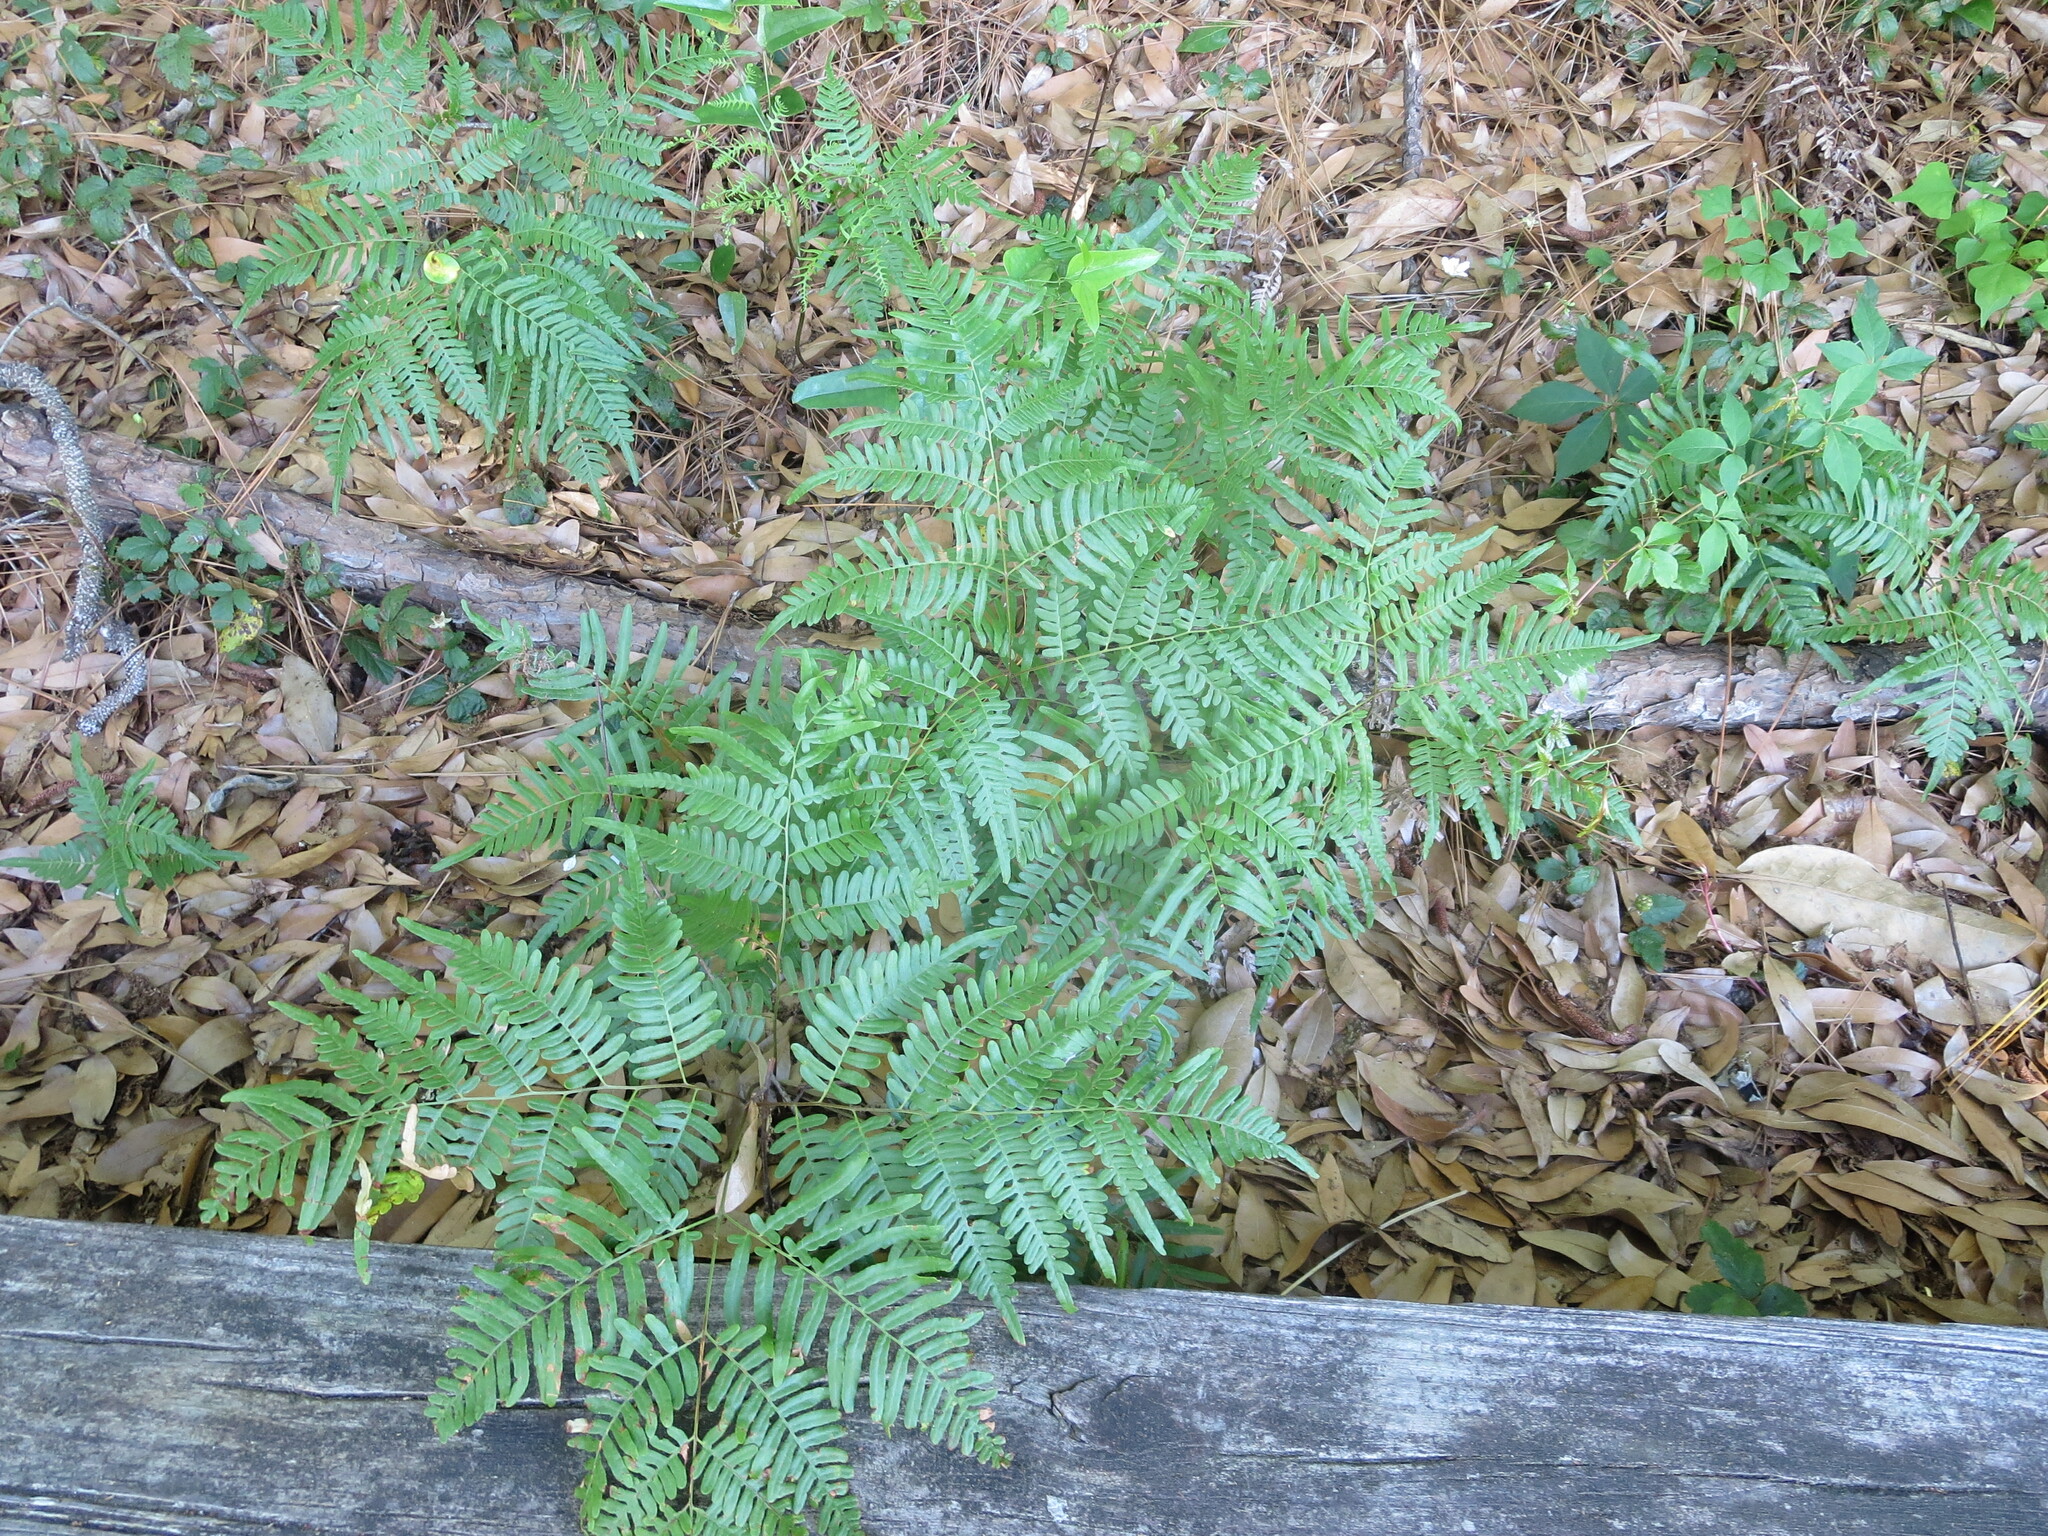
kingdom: Plantae
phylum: Tracheophyta
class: Polypodiopsida
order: Polypodiales
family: Dennstaedtiaceae
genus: Pteridium
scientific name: Pteridium
